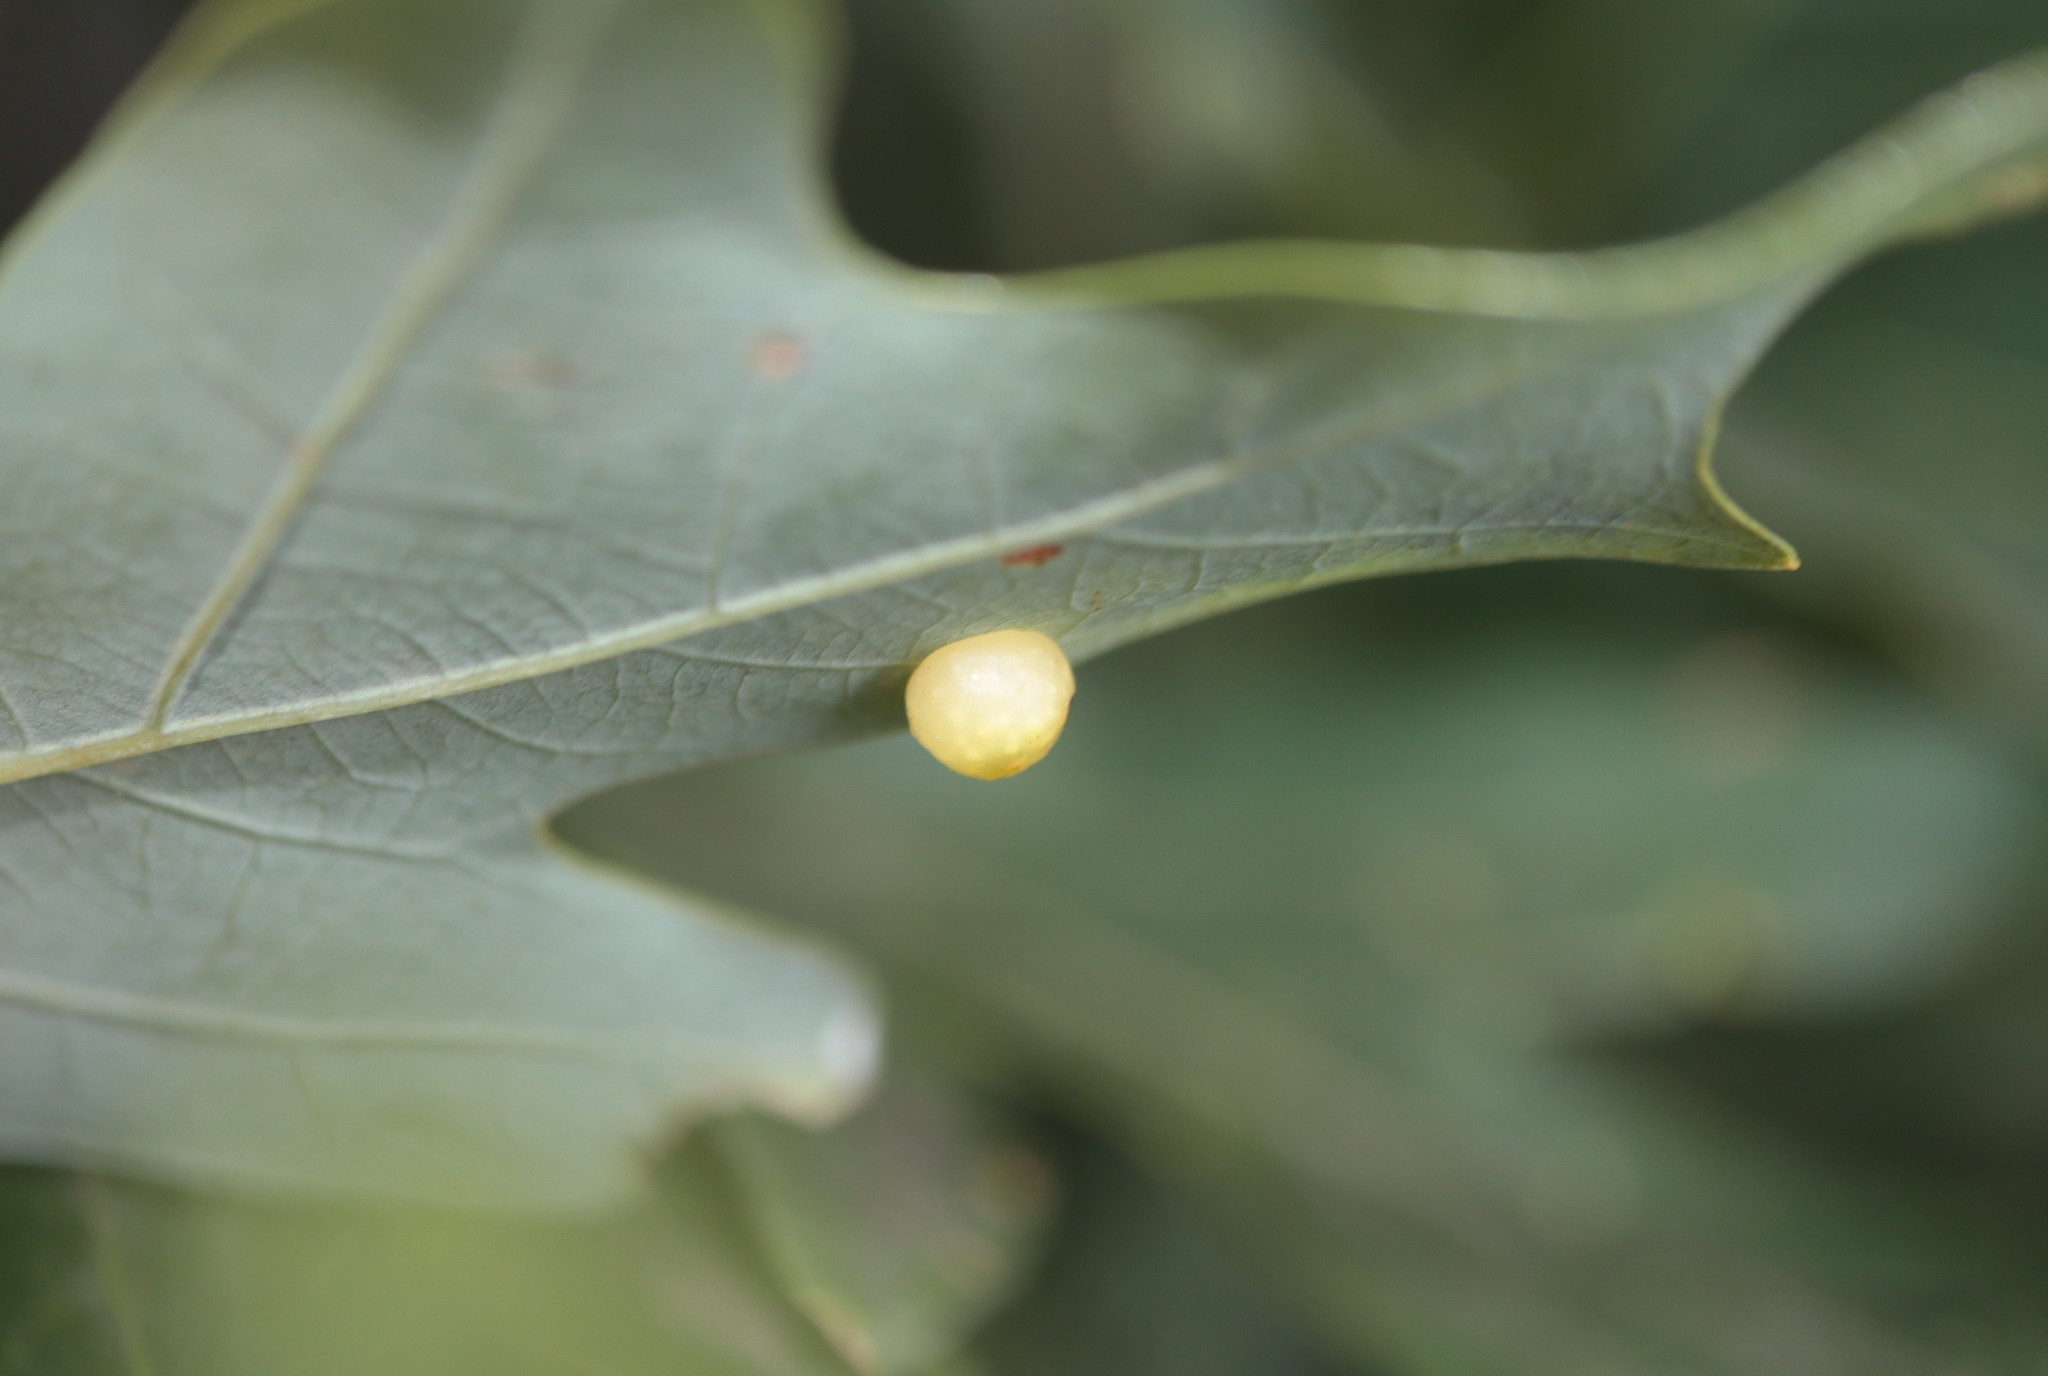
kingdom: Animalia
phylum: Arthropoda
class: Insecta
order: Hymenoptera
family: Cynipidae
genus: Andricus
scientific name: Andricus
